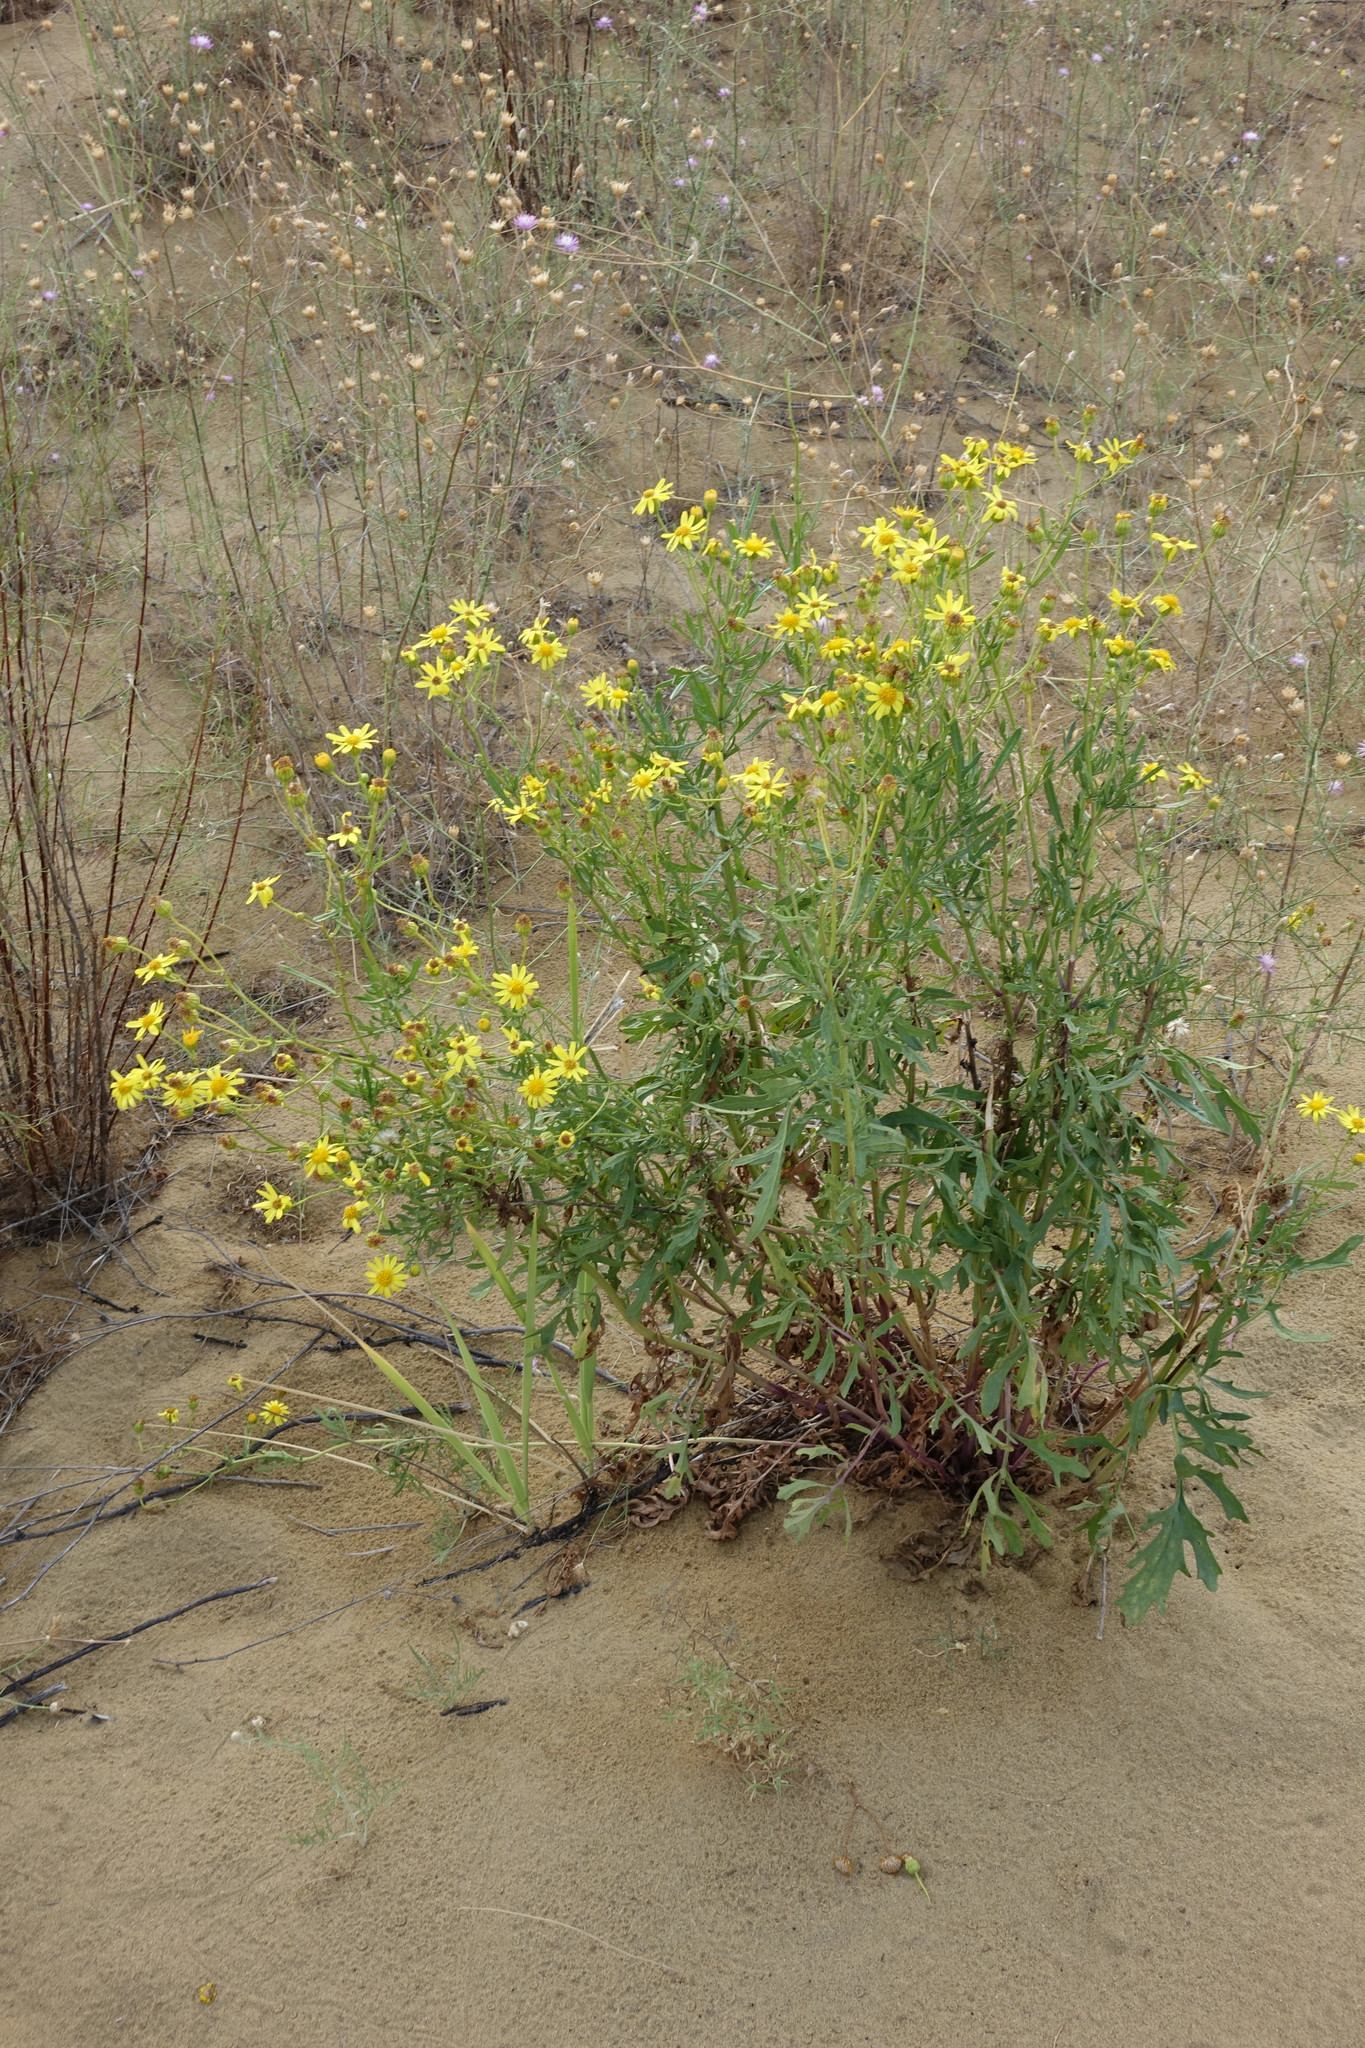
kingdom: Plantae
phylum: Tracheophyta
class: Magnoliopsida
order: Asterales
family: Asteraceae
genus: Jacobaea
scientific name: Jacobaea schischkiniana
